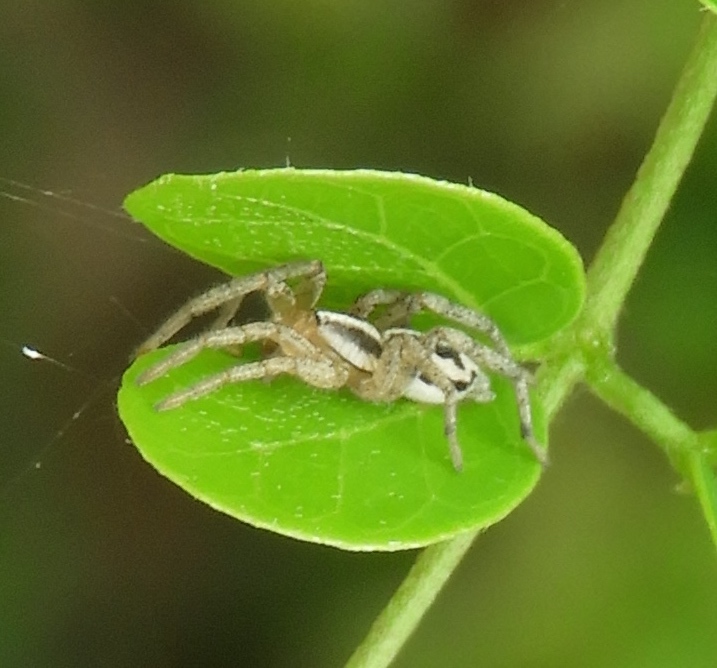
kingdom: Animalia
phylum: Arthropoda
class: Arachnida
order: Araneae
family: Gnaphosidae
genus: Cesonia
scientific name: Cesonia
